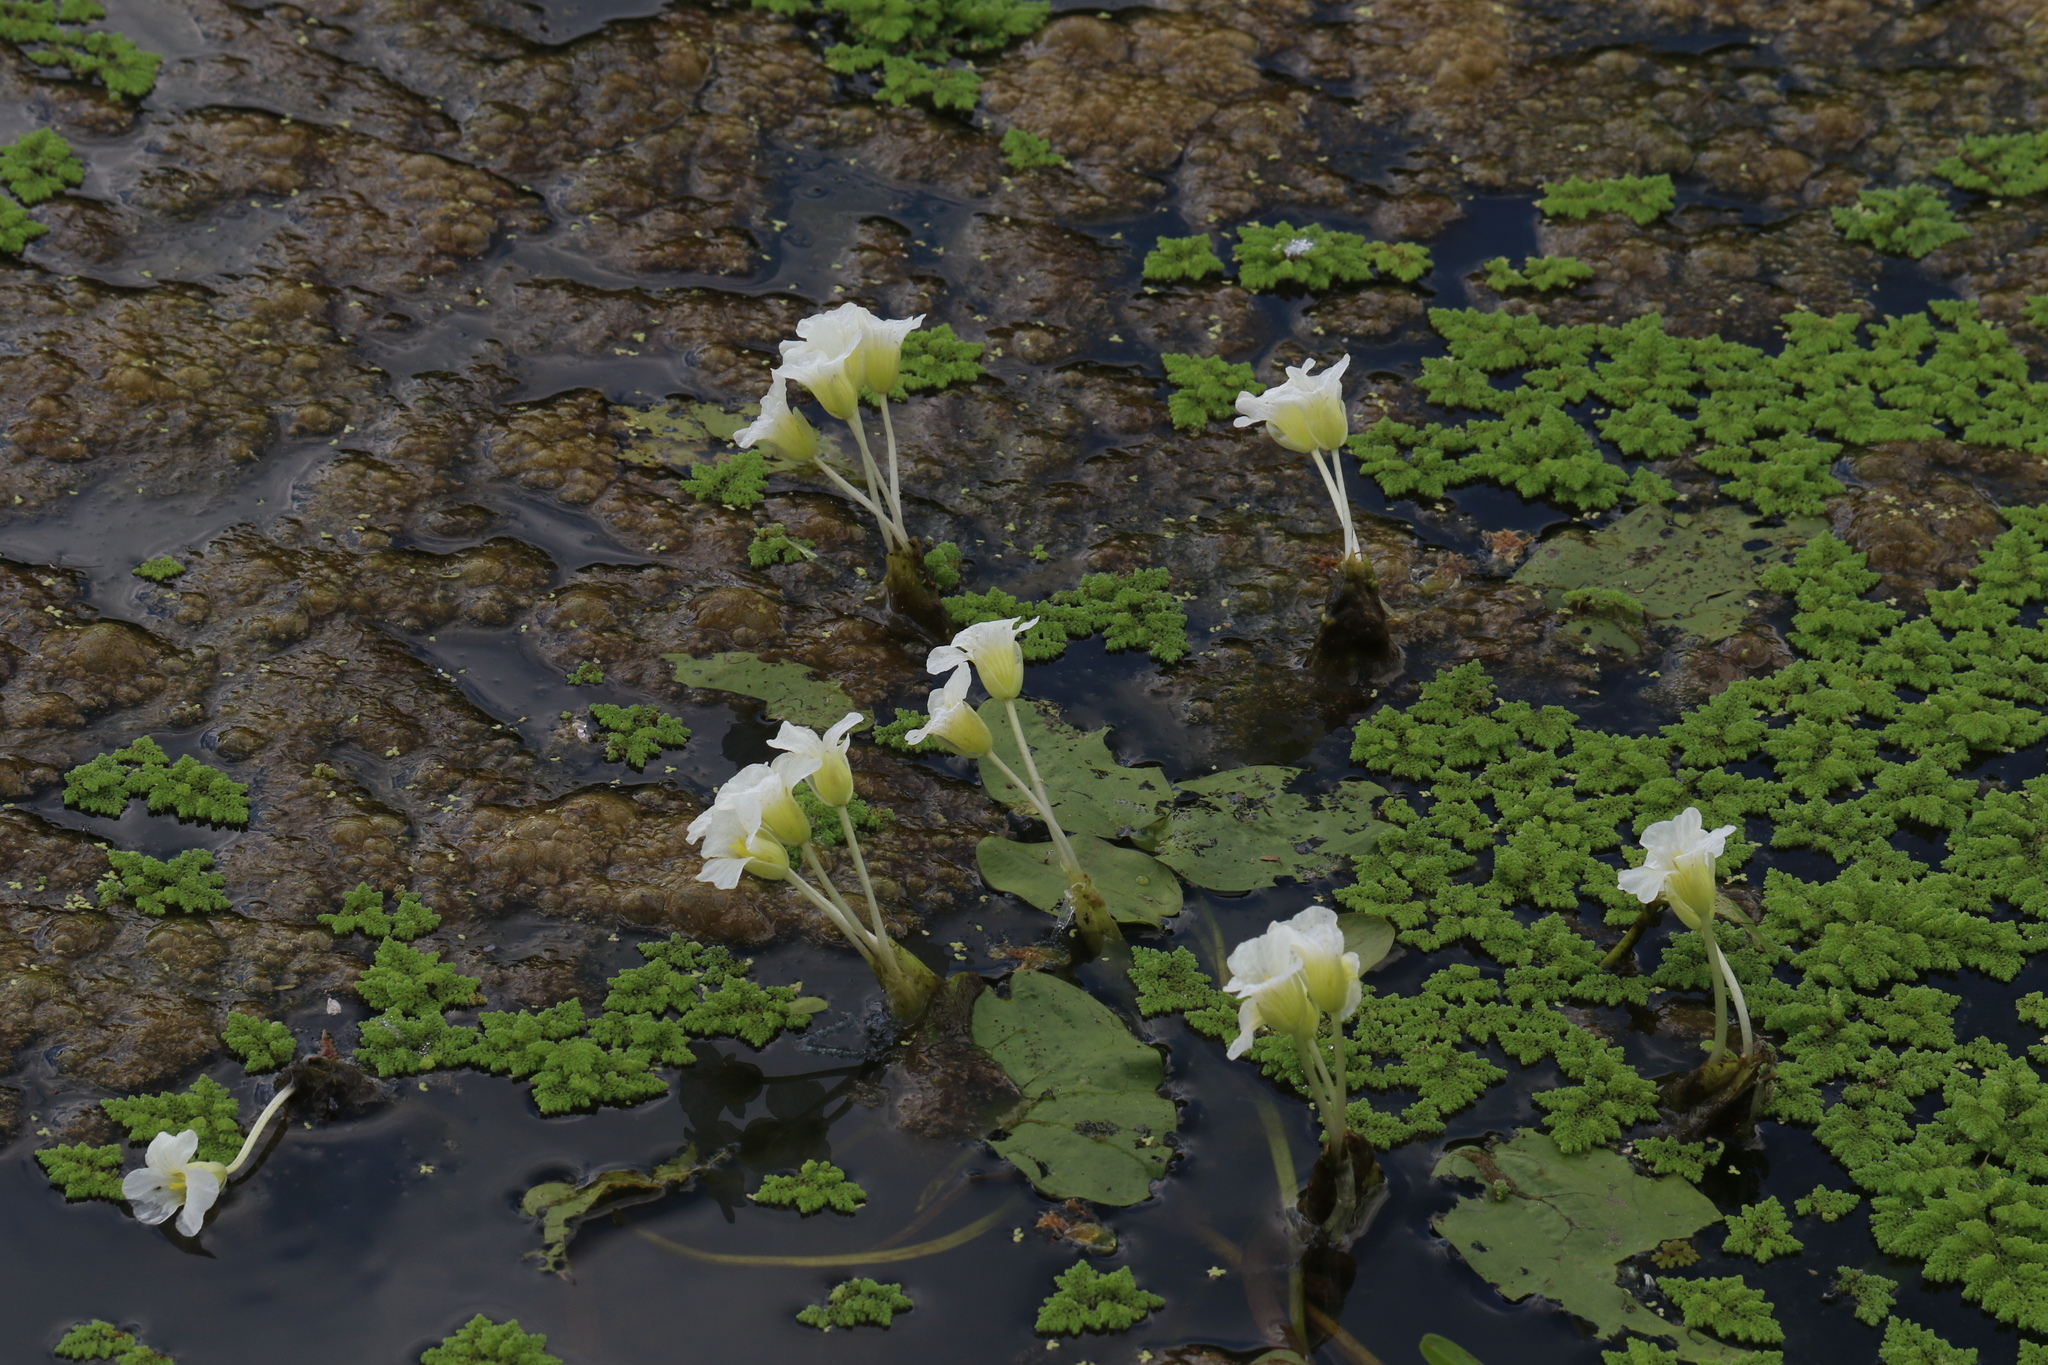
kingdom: Plantae
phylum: Tracheophyta
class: Liliopsida
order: Alismatales
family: Hydrocharitaceae
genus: Ottelia
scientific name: Ottelia exserta
